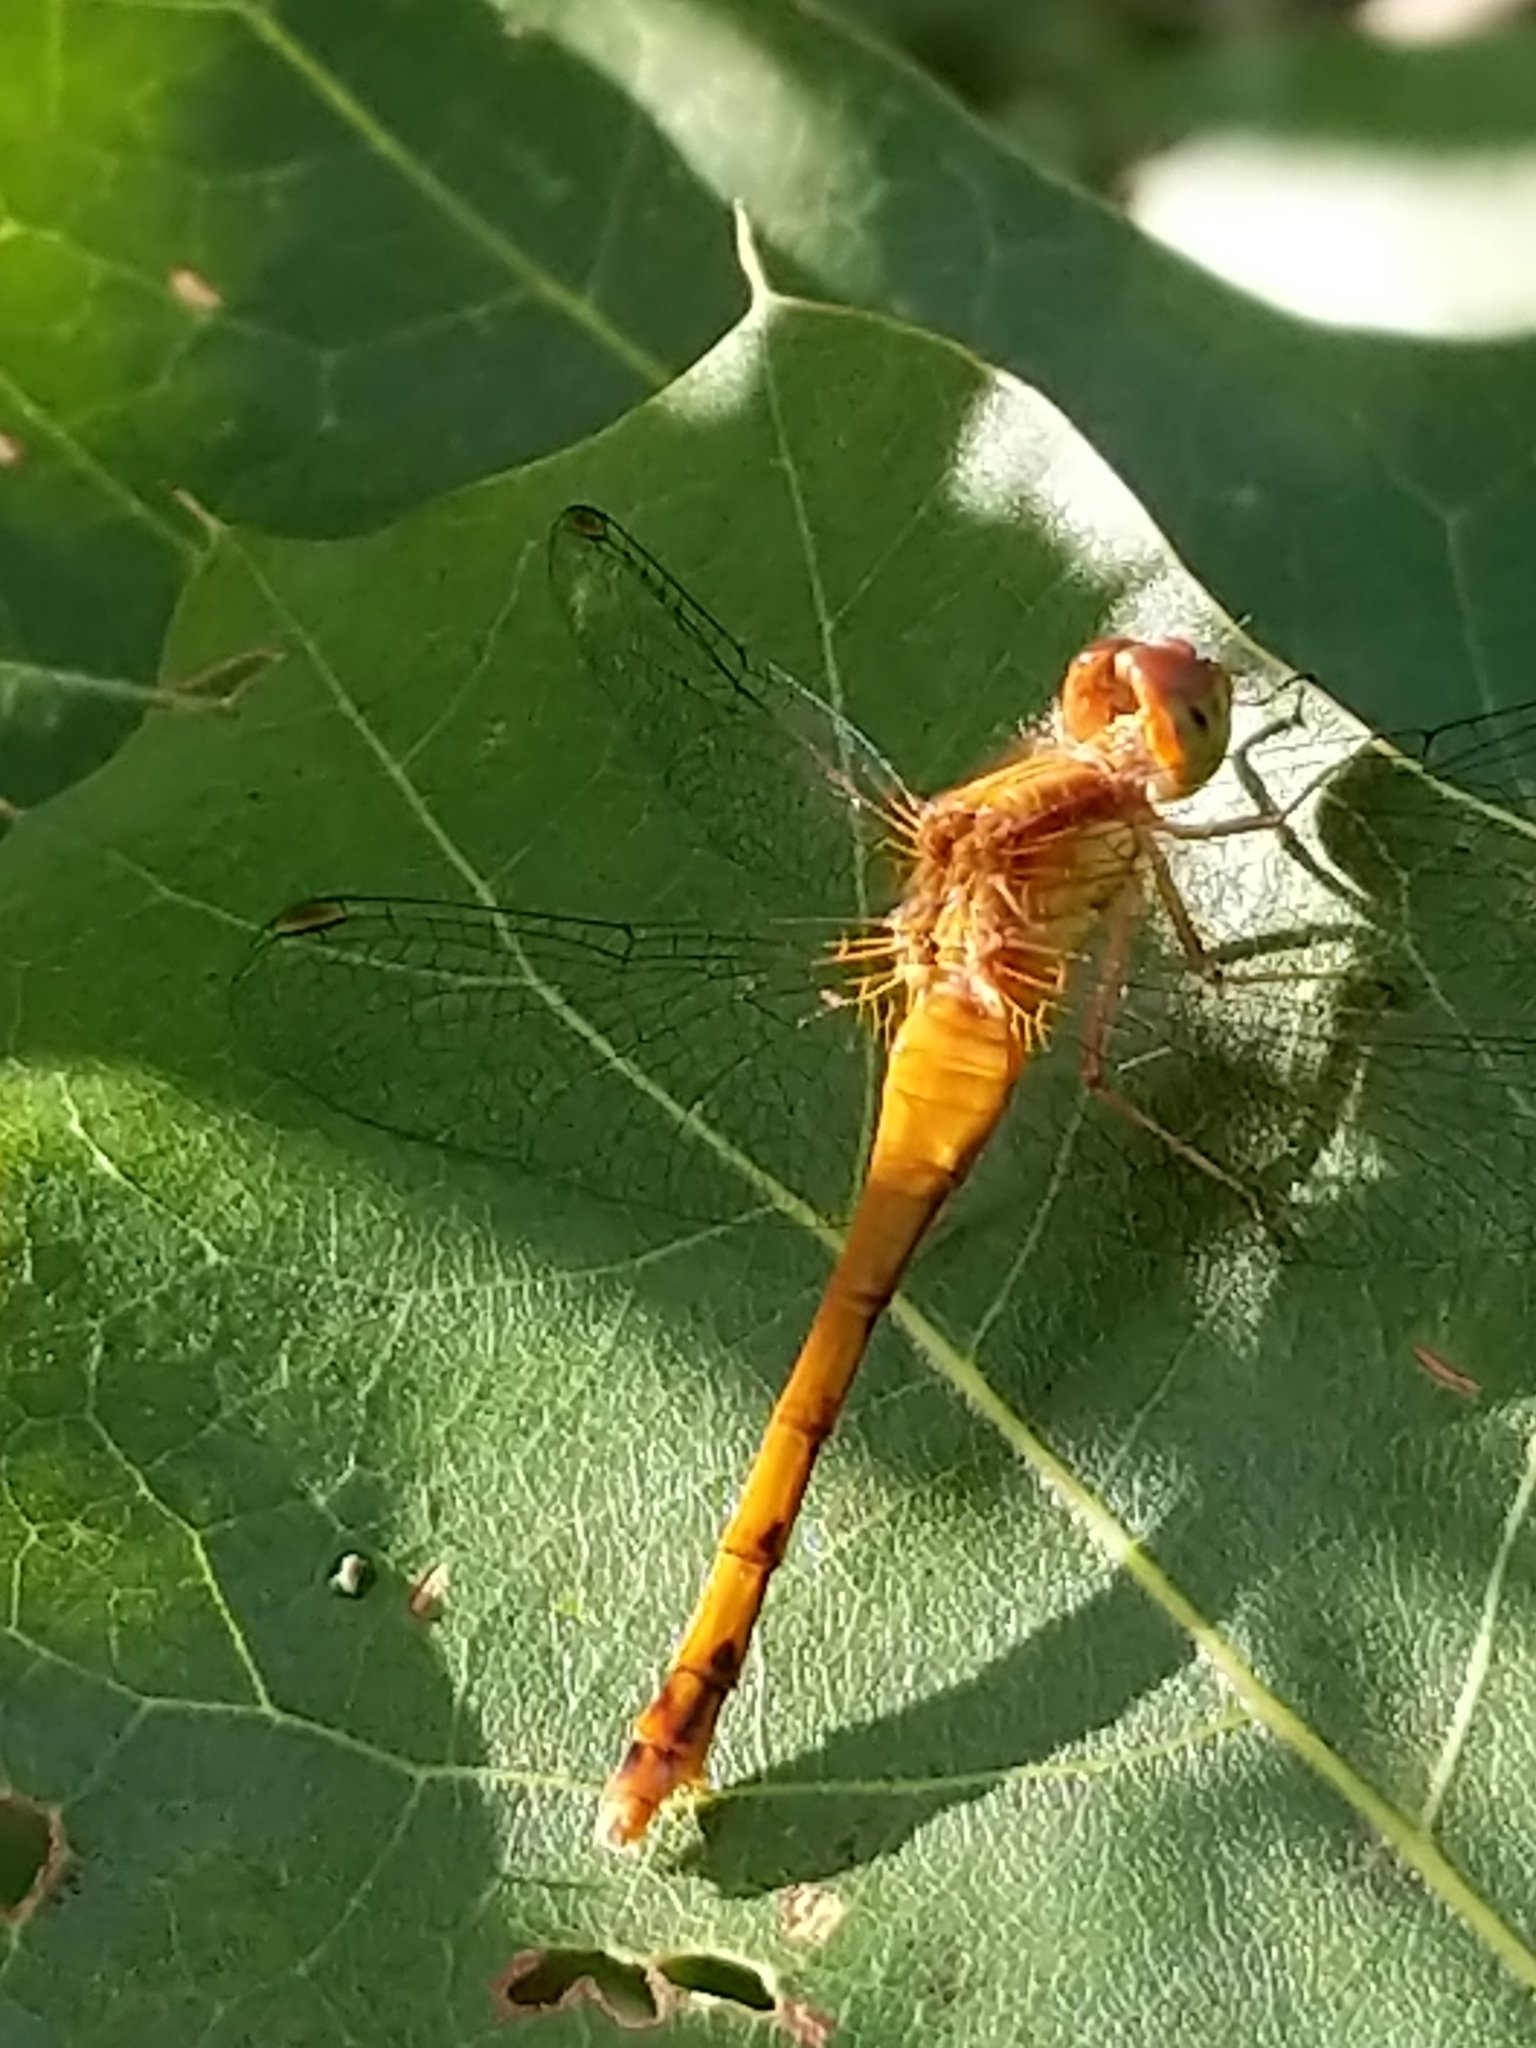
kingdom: Animalia
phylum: Arthropoda
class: Insecta
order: Odonata
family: Libellulidae
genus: Sympetrum
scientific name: Sympetrum vicinum
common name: Autumn meadowhawk
